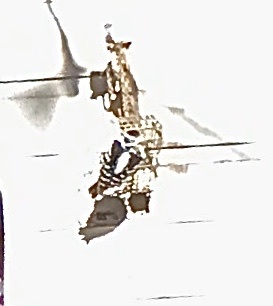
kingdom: Animalia
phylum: Chordata
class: Aves
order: Piciformes
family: Picidae
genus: Dryobates
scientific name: Dryobates pubescens
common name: Downy woodpecker
